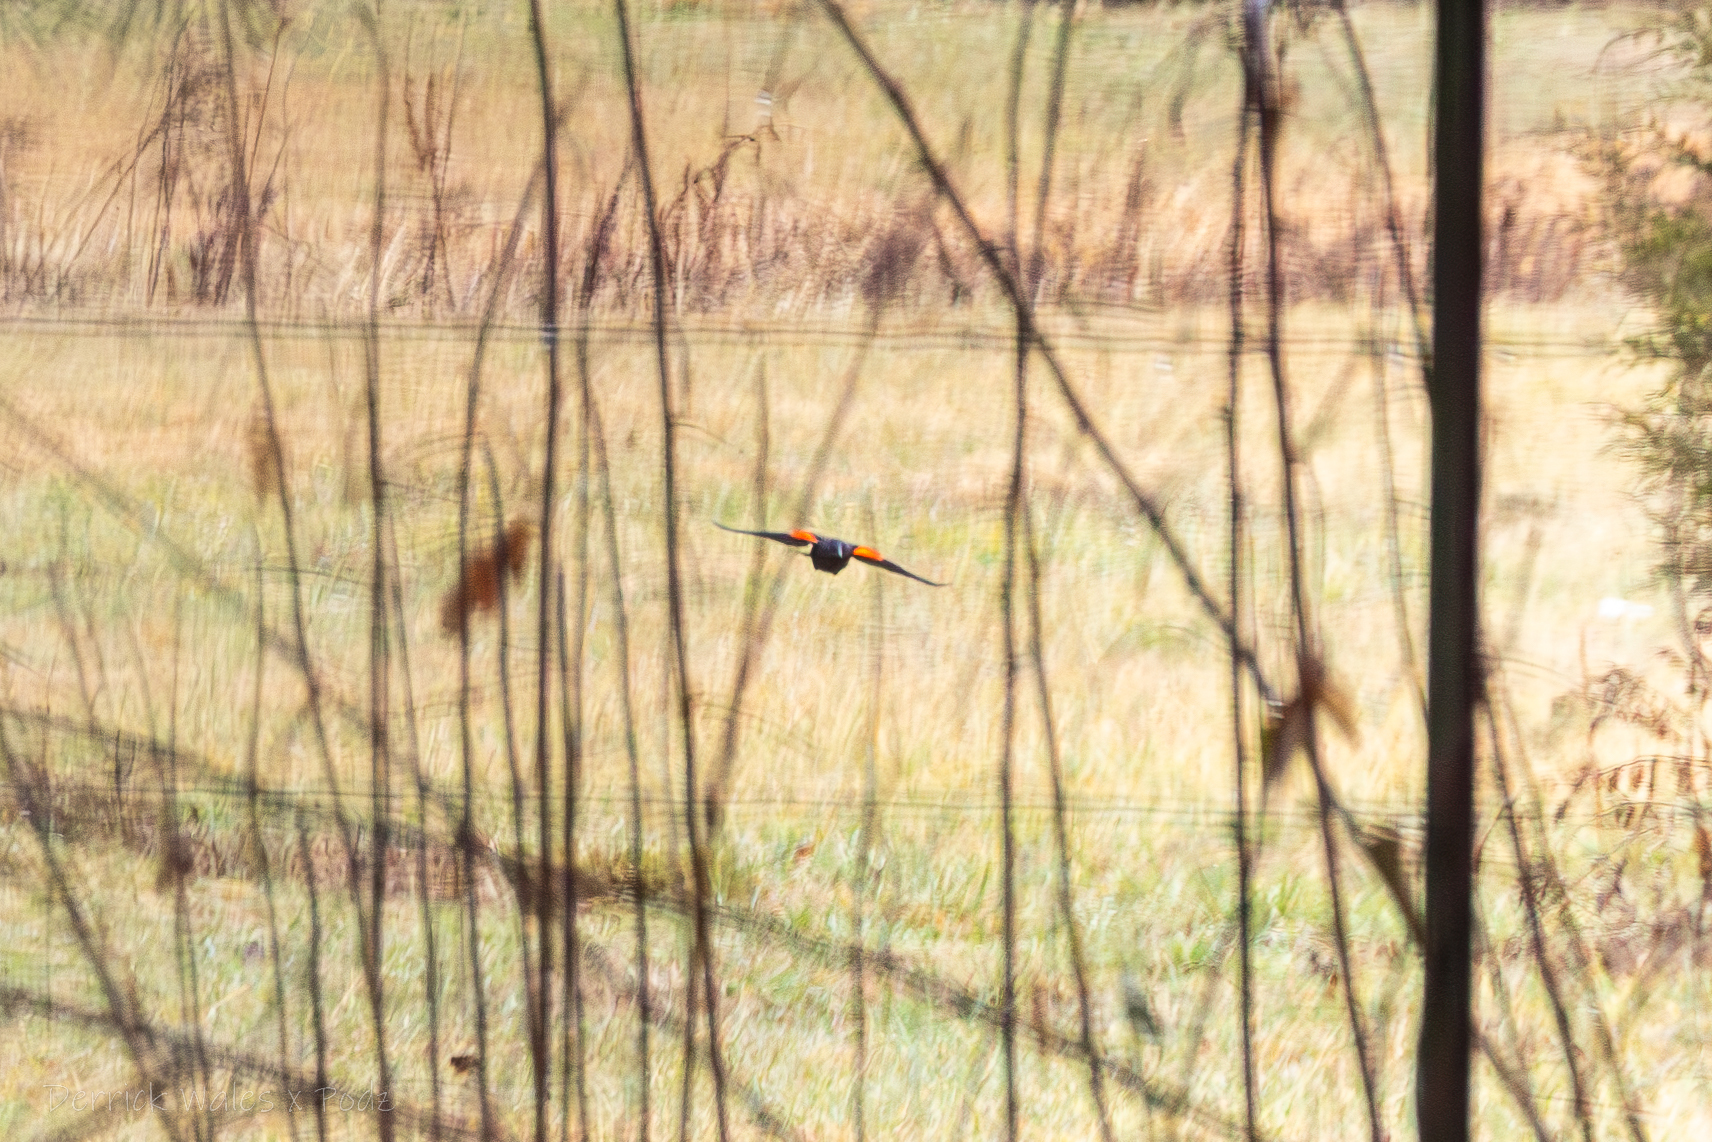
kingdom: Animalia
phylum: Chordata
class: Aves
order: Passeriformes
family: Icteridae
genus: Agelaius
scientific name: Agelaius phoeniceus
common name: Red-winged blackbird
